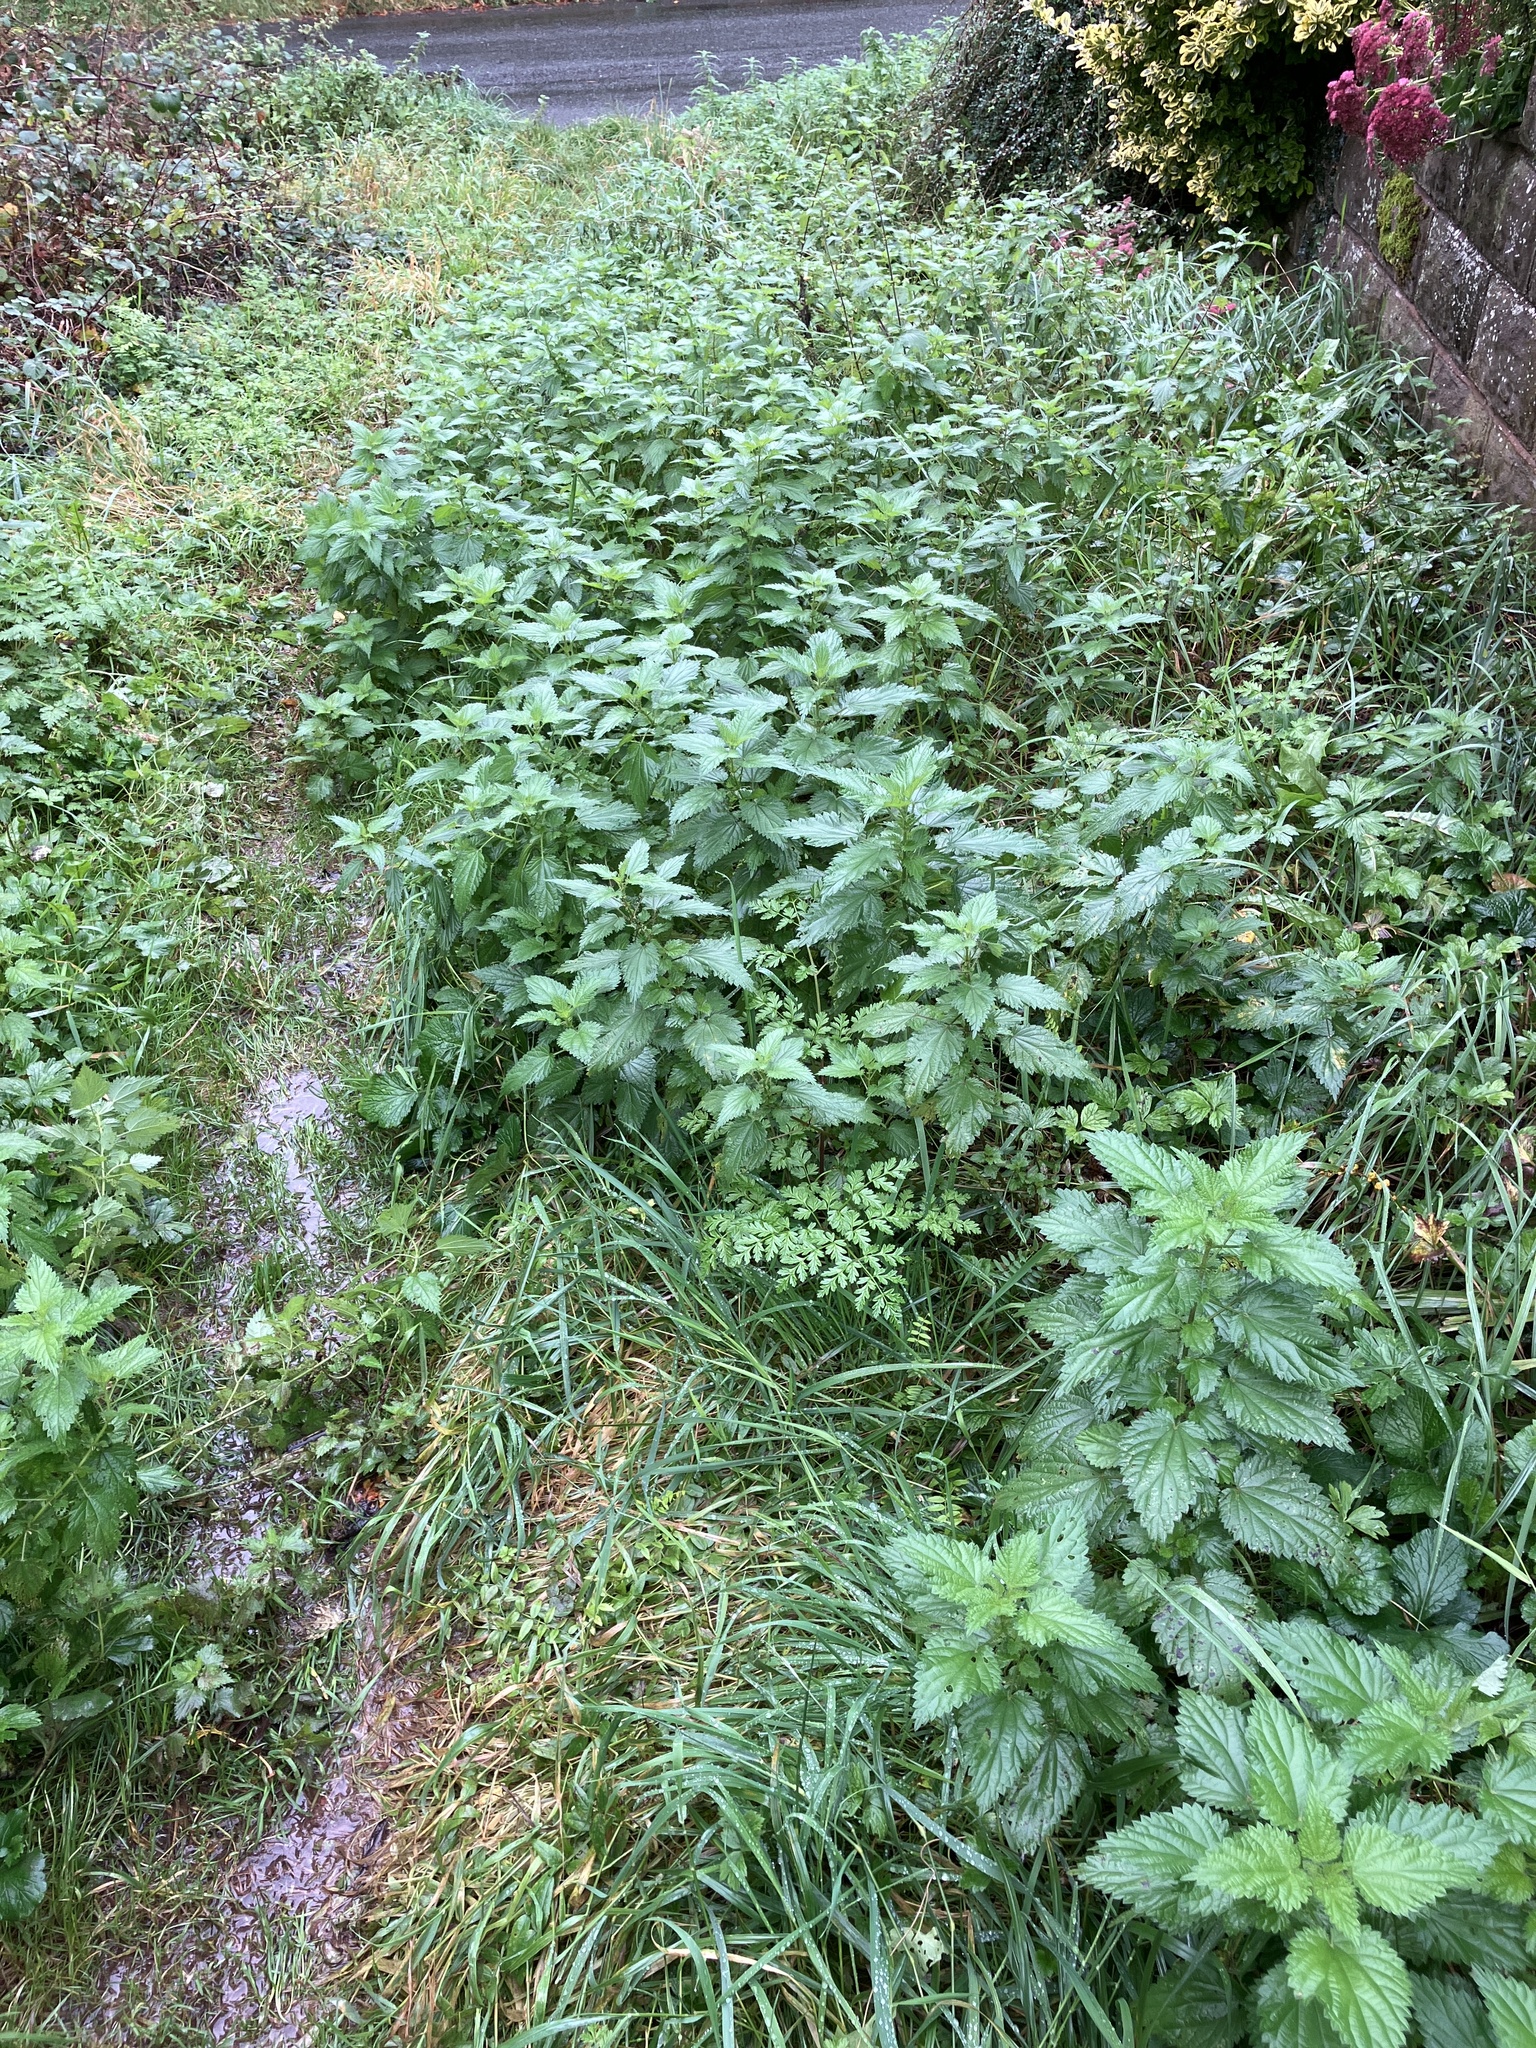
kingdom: Plantae
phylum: Tracheophyta
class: Magnoliopsida
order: Rosales
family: Urticaceae
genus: Urtica
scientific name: Urtica dioica
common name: Common nettle
